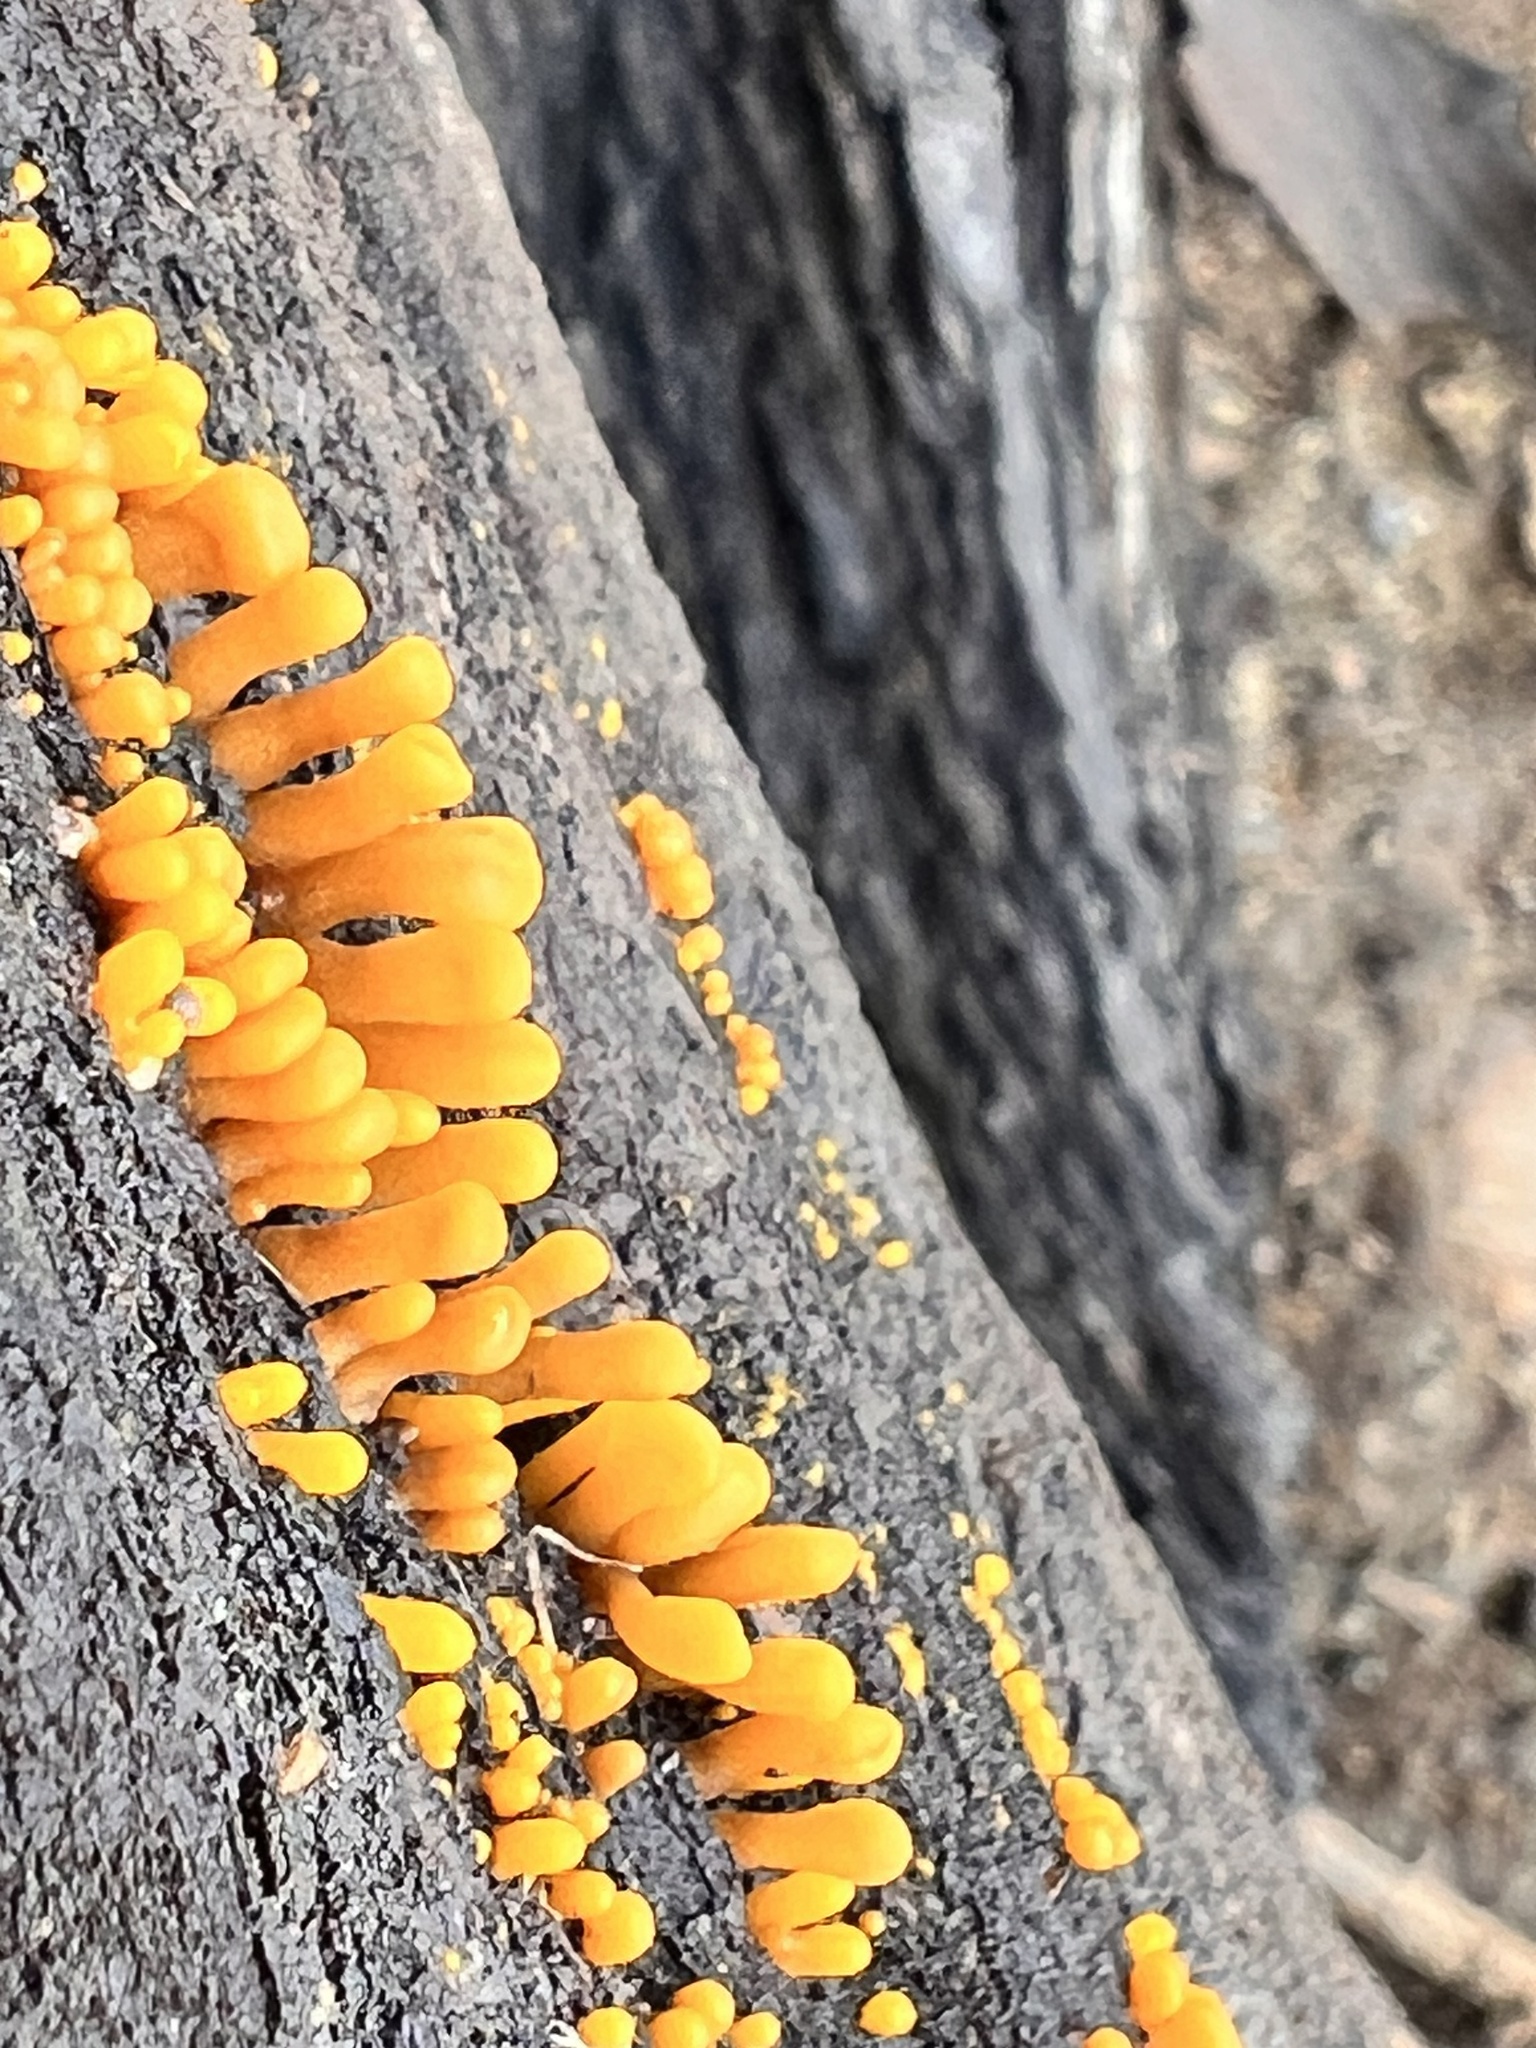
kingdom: Fungi
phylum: Basidiomycota
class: Dacrymycetes
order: Dacrymycetales
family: Dacrymycetaceae
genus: Dacrymyces
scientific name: Dacrymyces spathularius
